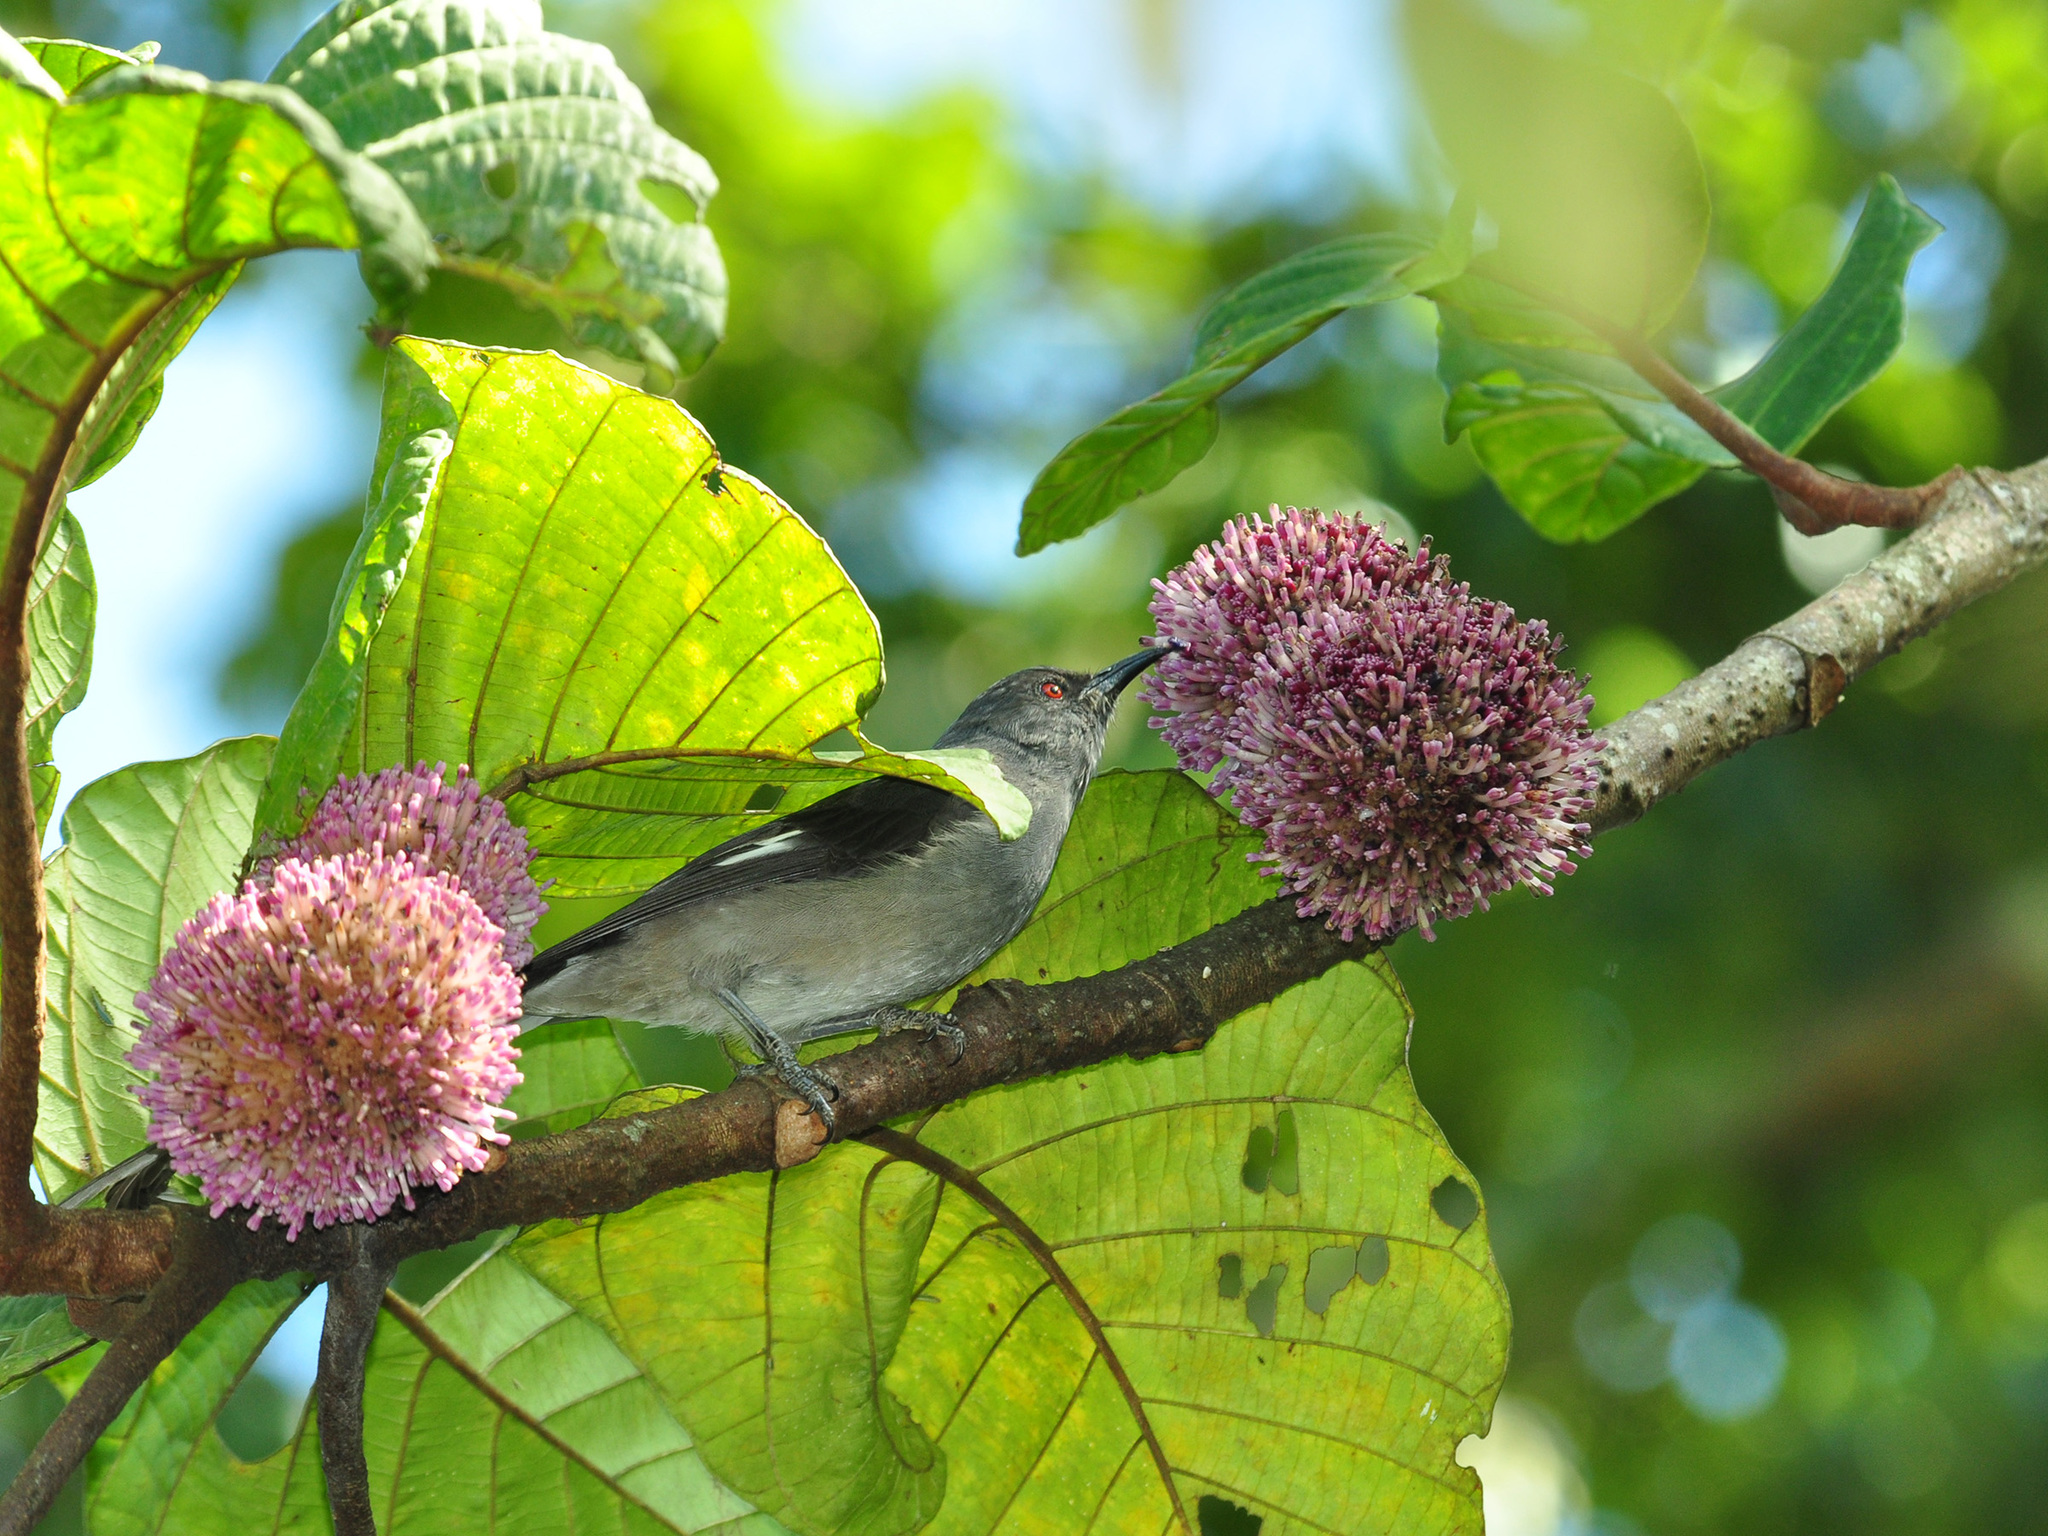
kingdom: Animalia
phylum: Chordata
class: Aves
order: Passeriformes
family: Leiothrichidae
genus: Heterophasia
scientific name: Heterophasia picaoides
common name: Long-tailed sibia
